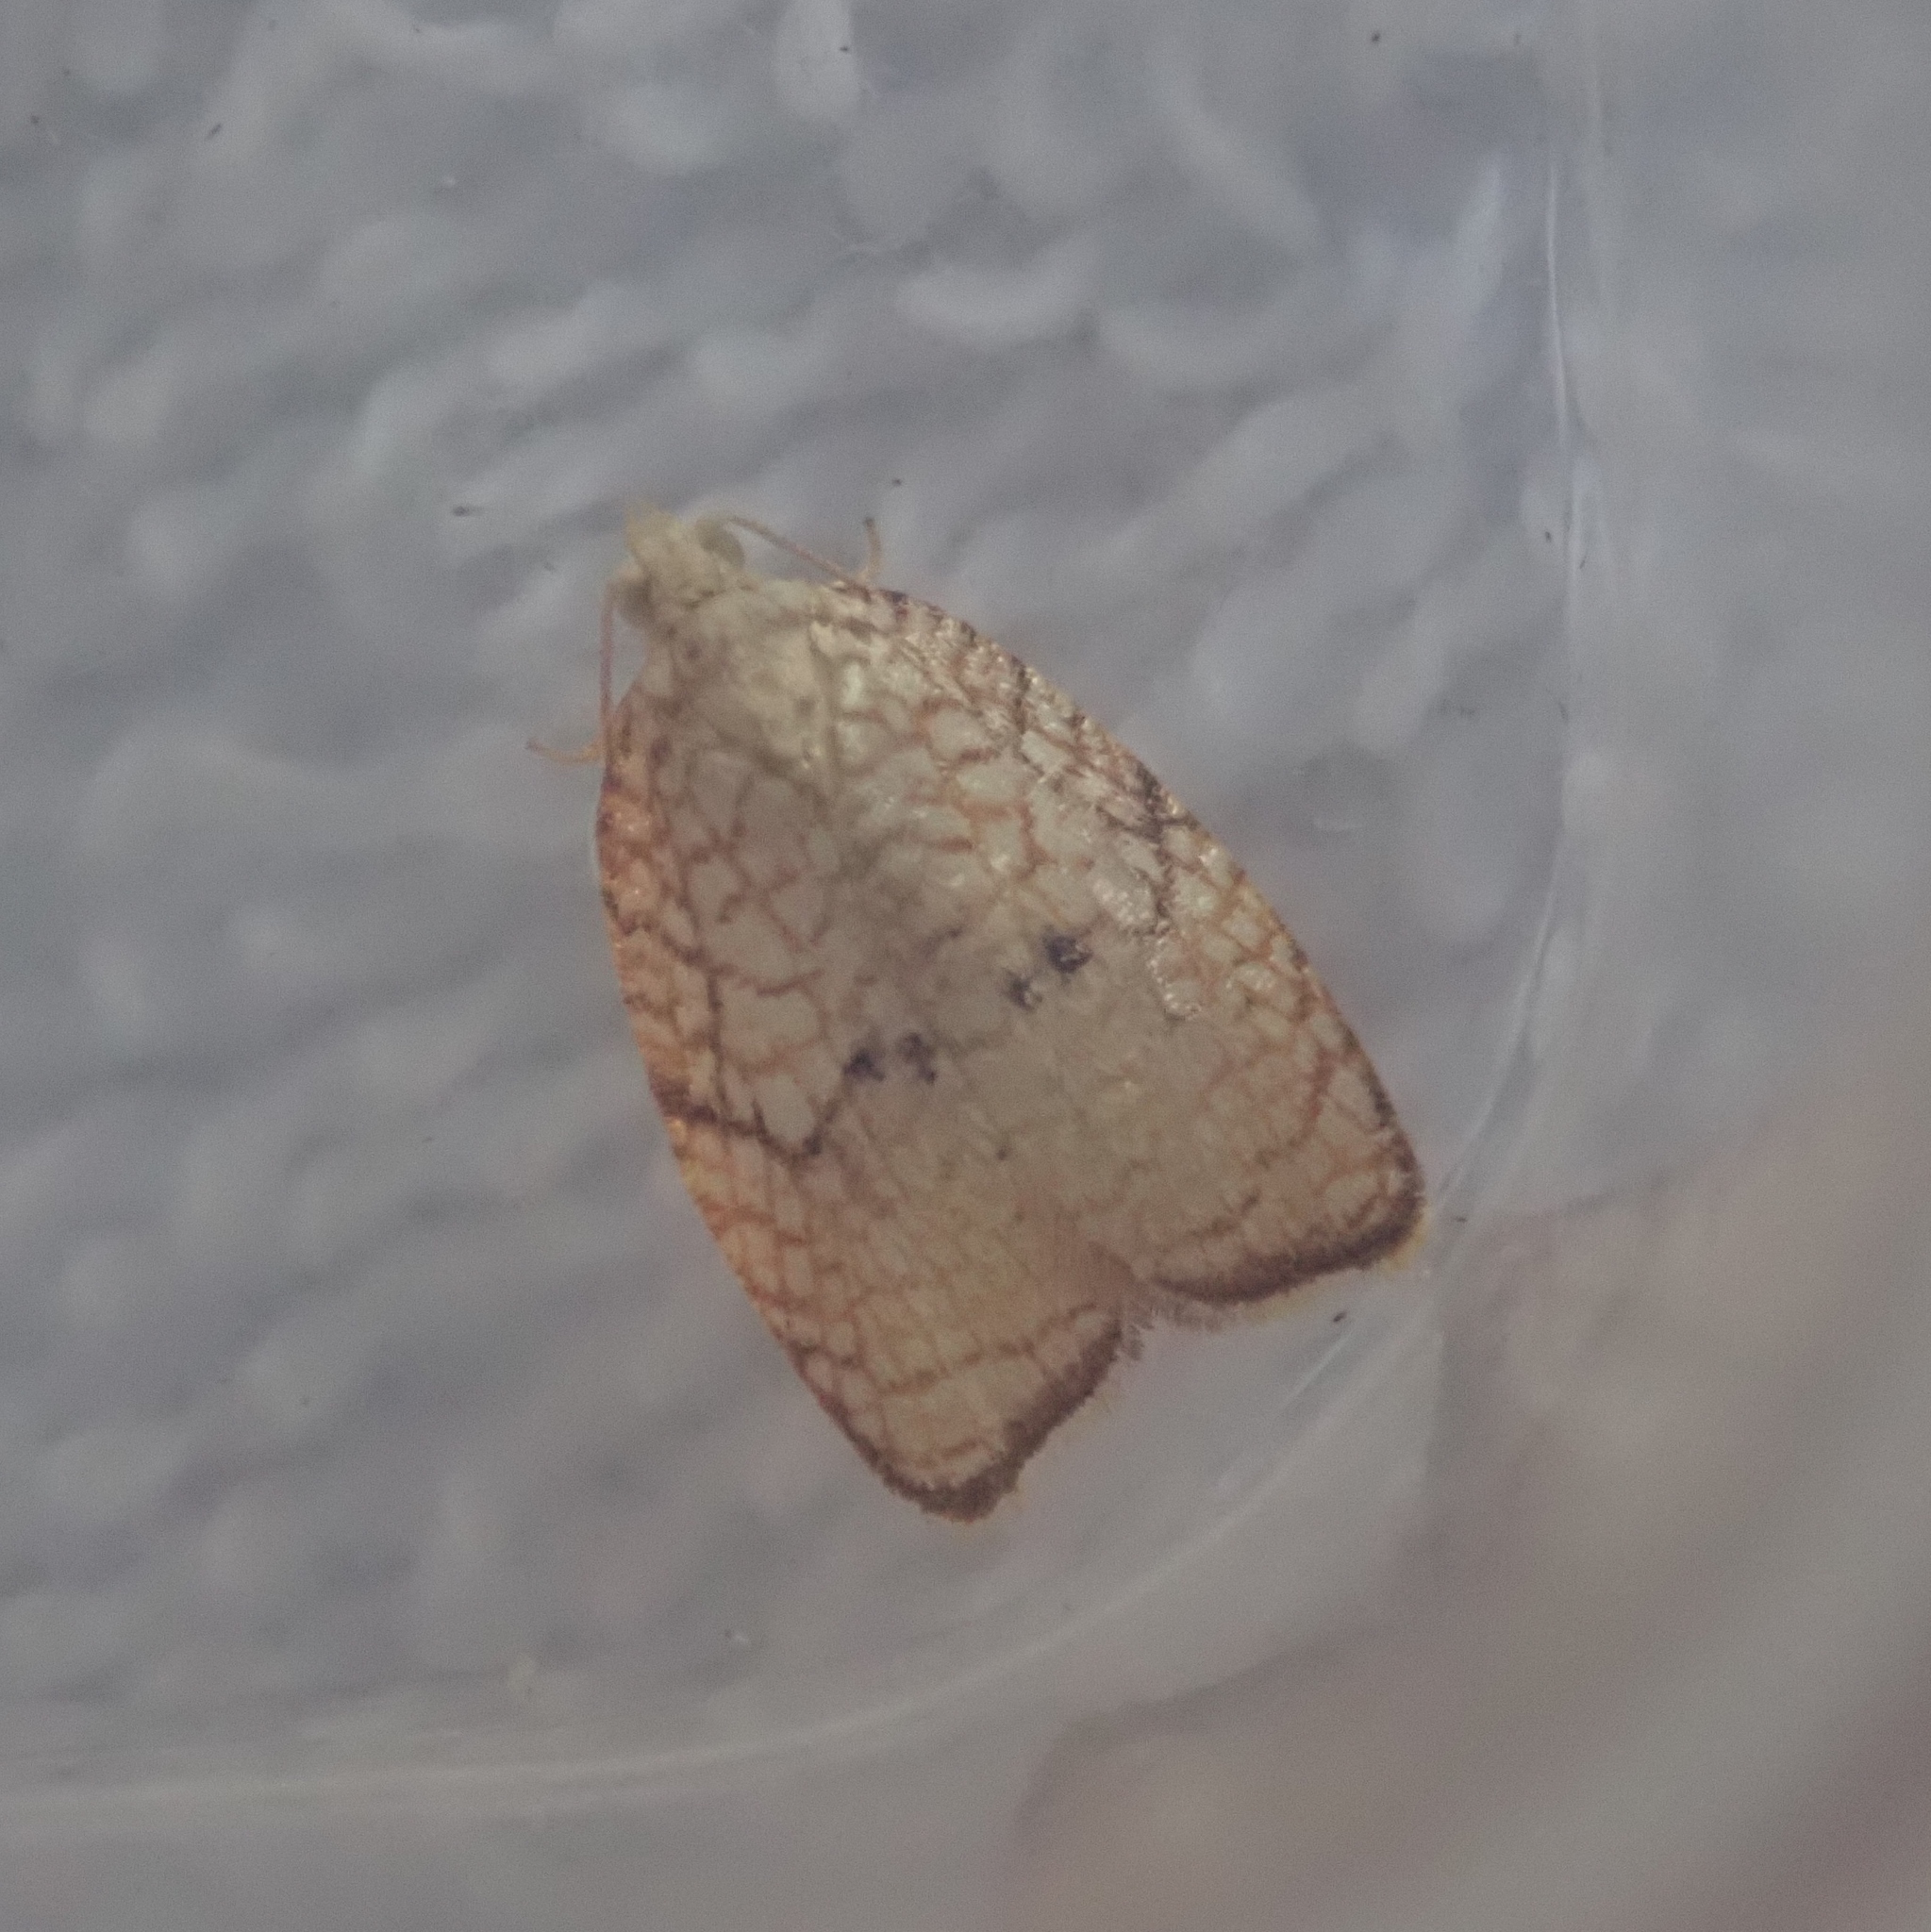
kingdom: Animalia
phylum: Arthropoda
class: Insecta
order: Lepidoptera
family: Tortricidae
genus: Acleris
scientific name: Acleris forsskaleana
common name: Maple button
